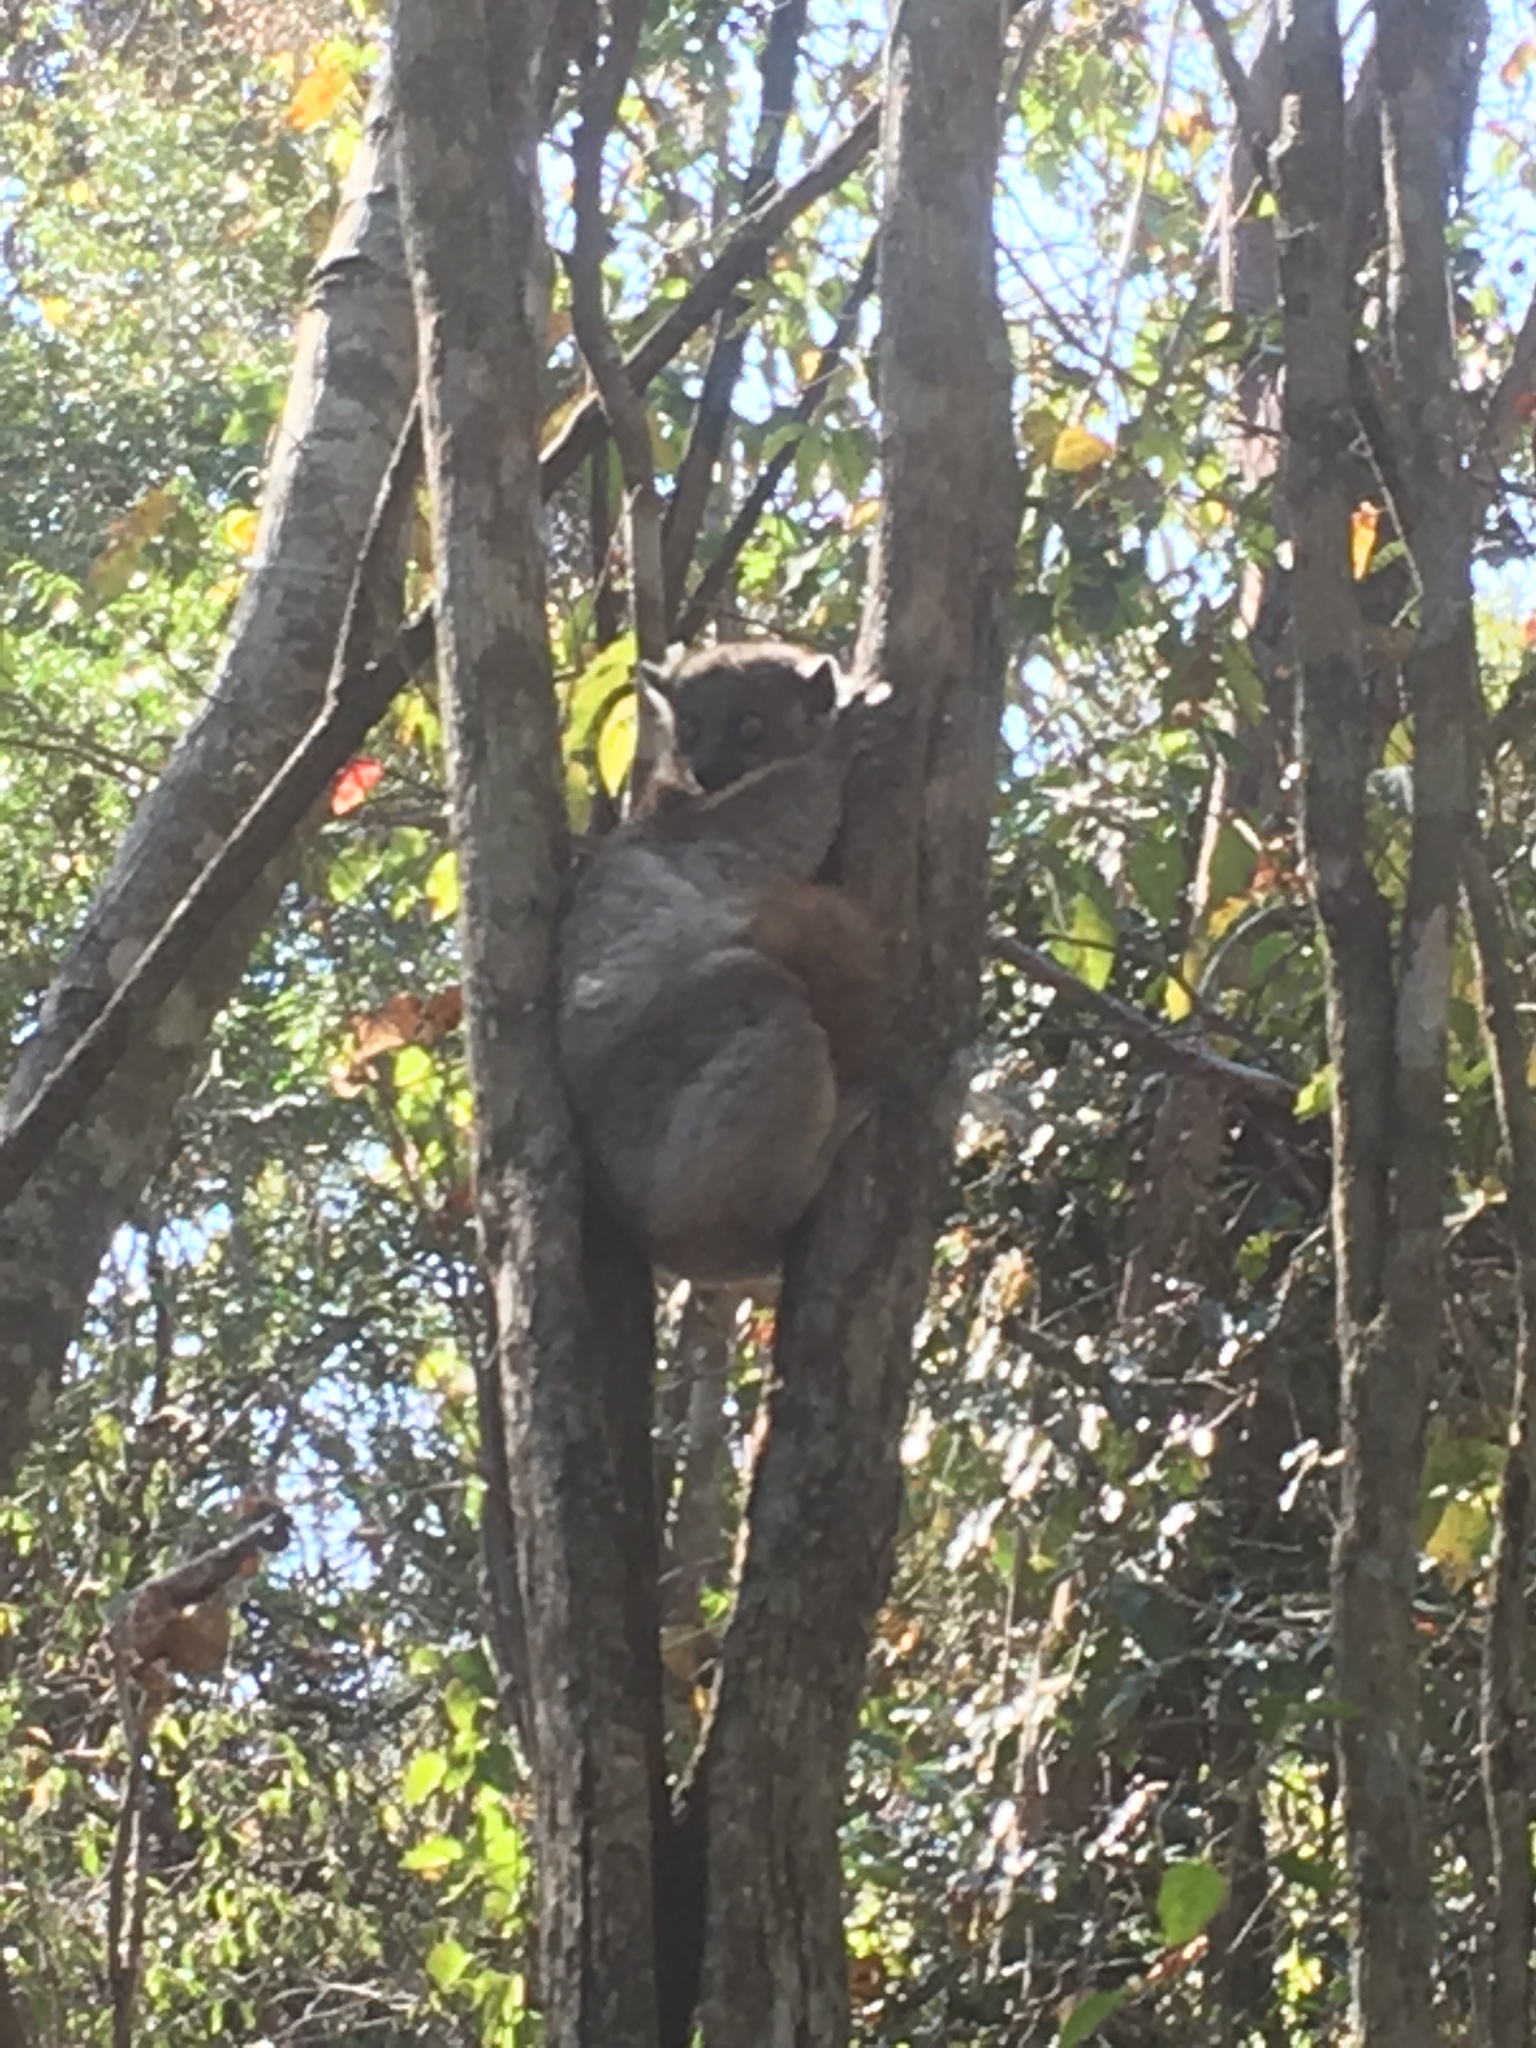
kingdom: Animalia
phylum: Chordata
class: Mammalia
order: Primates
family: Lepilemuridae
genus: Lepilemur
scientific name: Lepilemur hubbardi
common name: Zombitse sportive lemur
